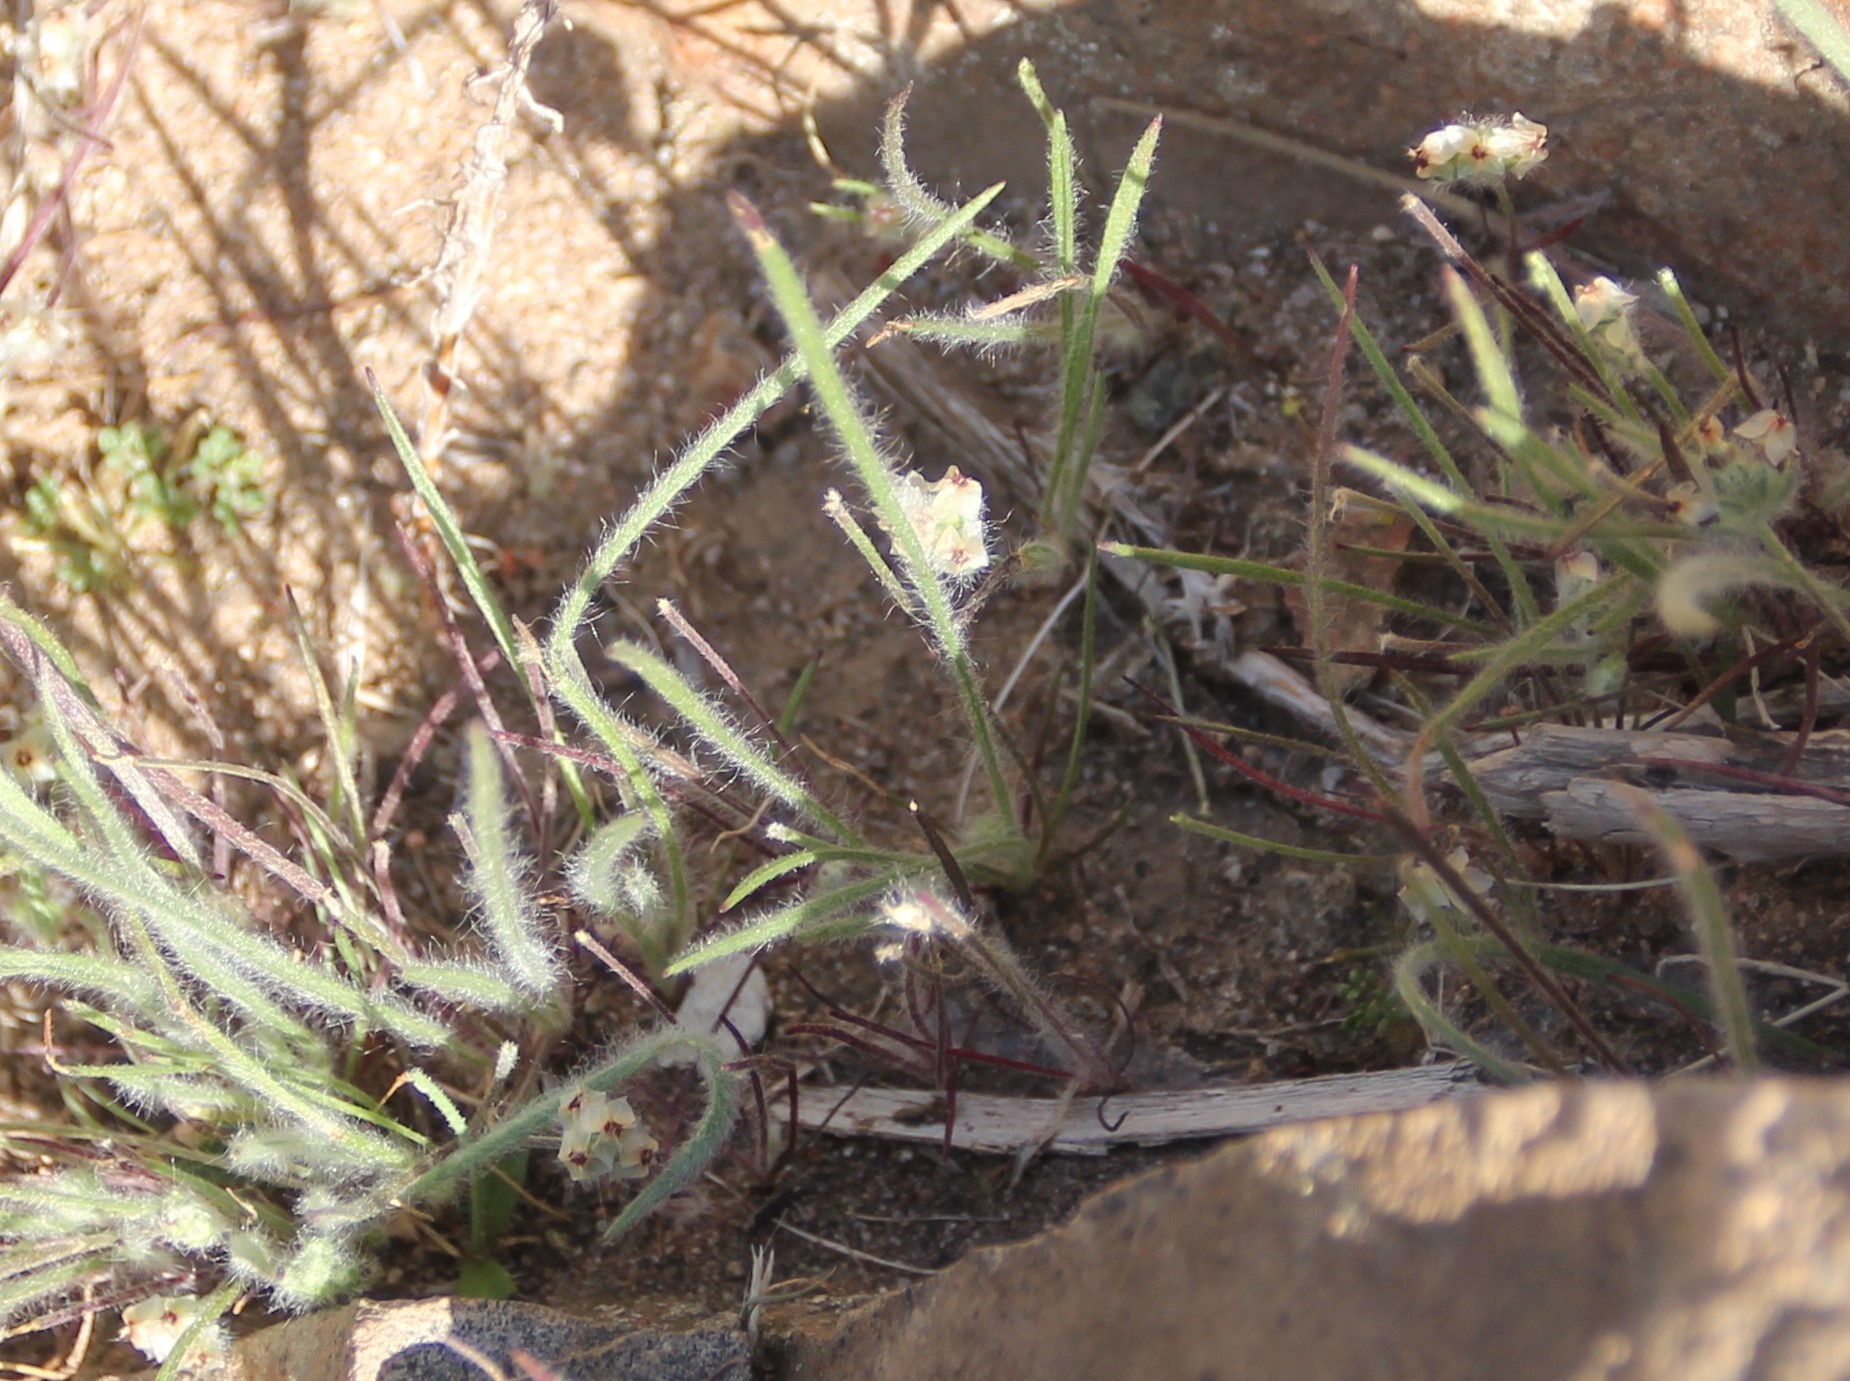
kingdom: Plantae
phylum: Tracheophyta
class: Magnoliopsida
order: Lamiales
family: Plantaginaceae
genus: Plantago
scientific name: Plantago erecta
